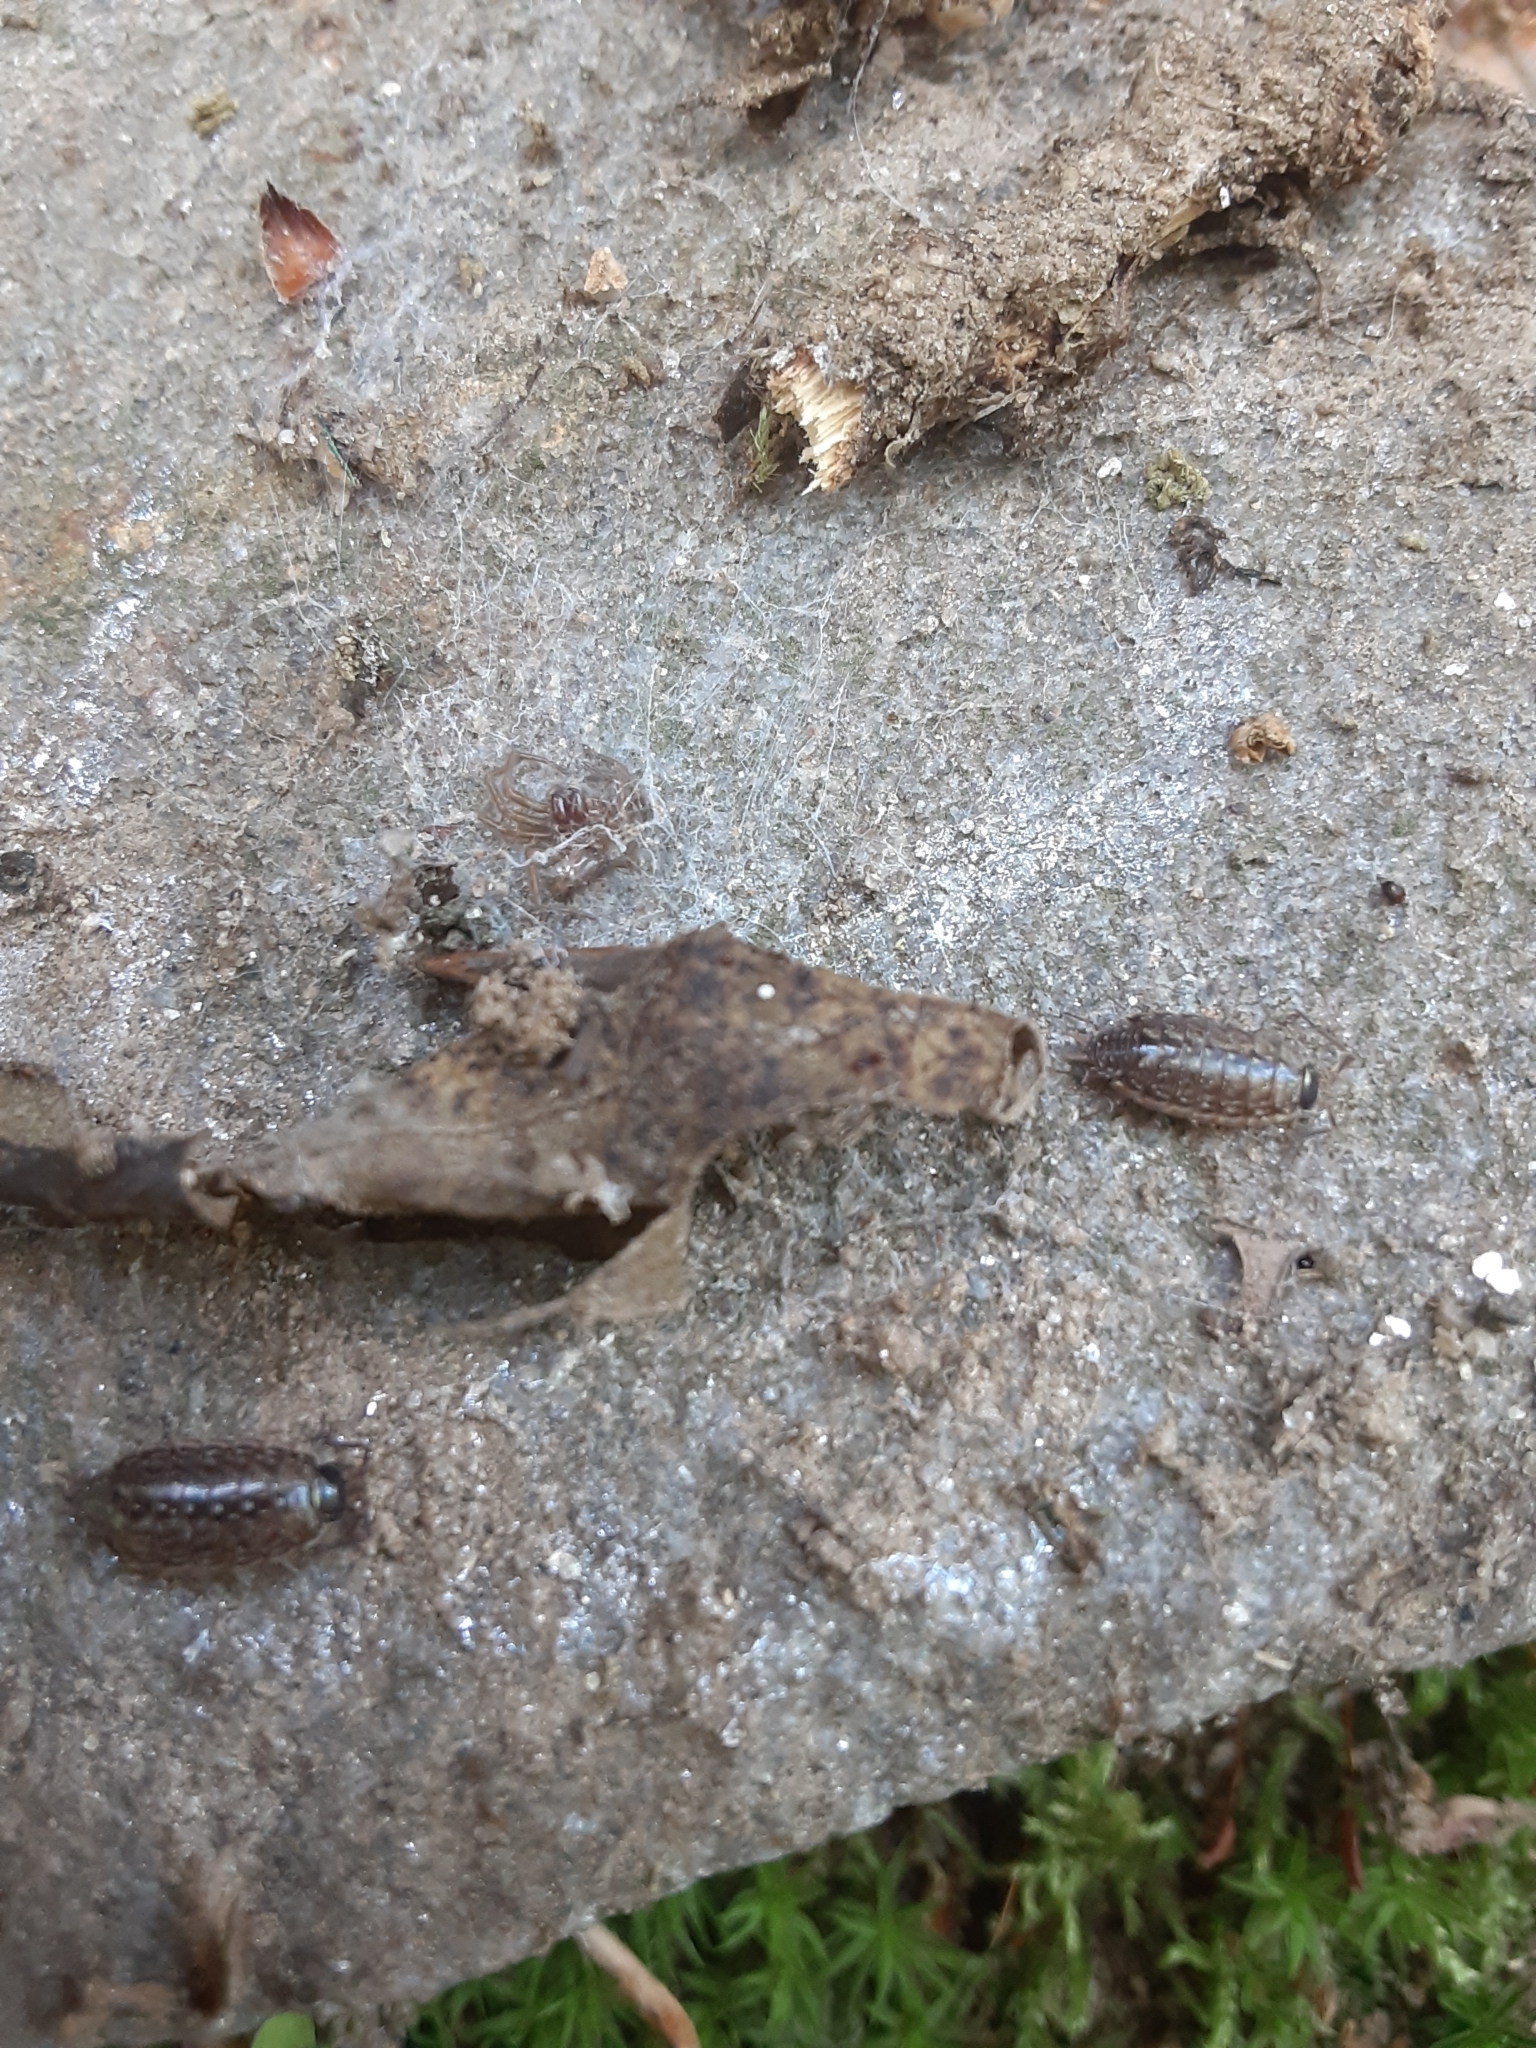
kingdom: Animalia
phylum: Arthropoda
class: Malacostraca
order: Isopoda
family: Philosciidae
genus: Philoscia
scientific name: Philoscia muscorum
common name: Common striped woodlouse
